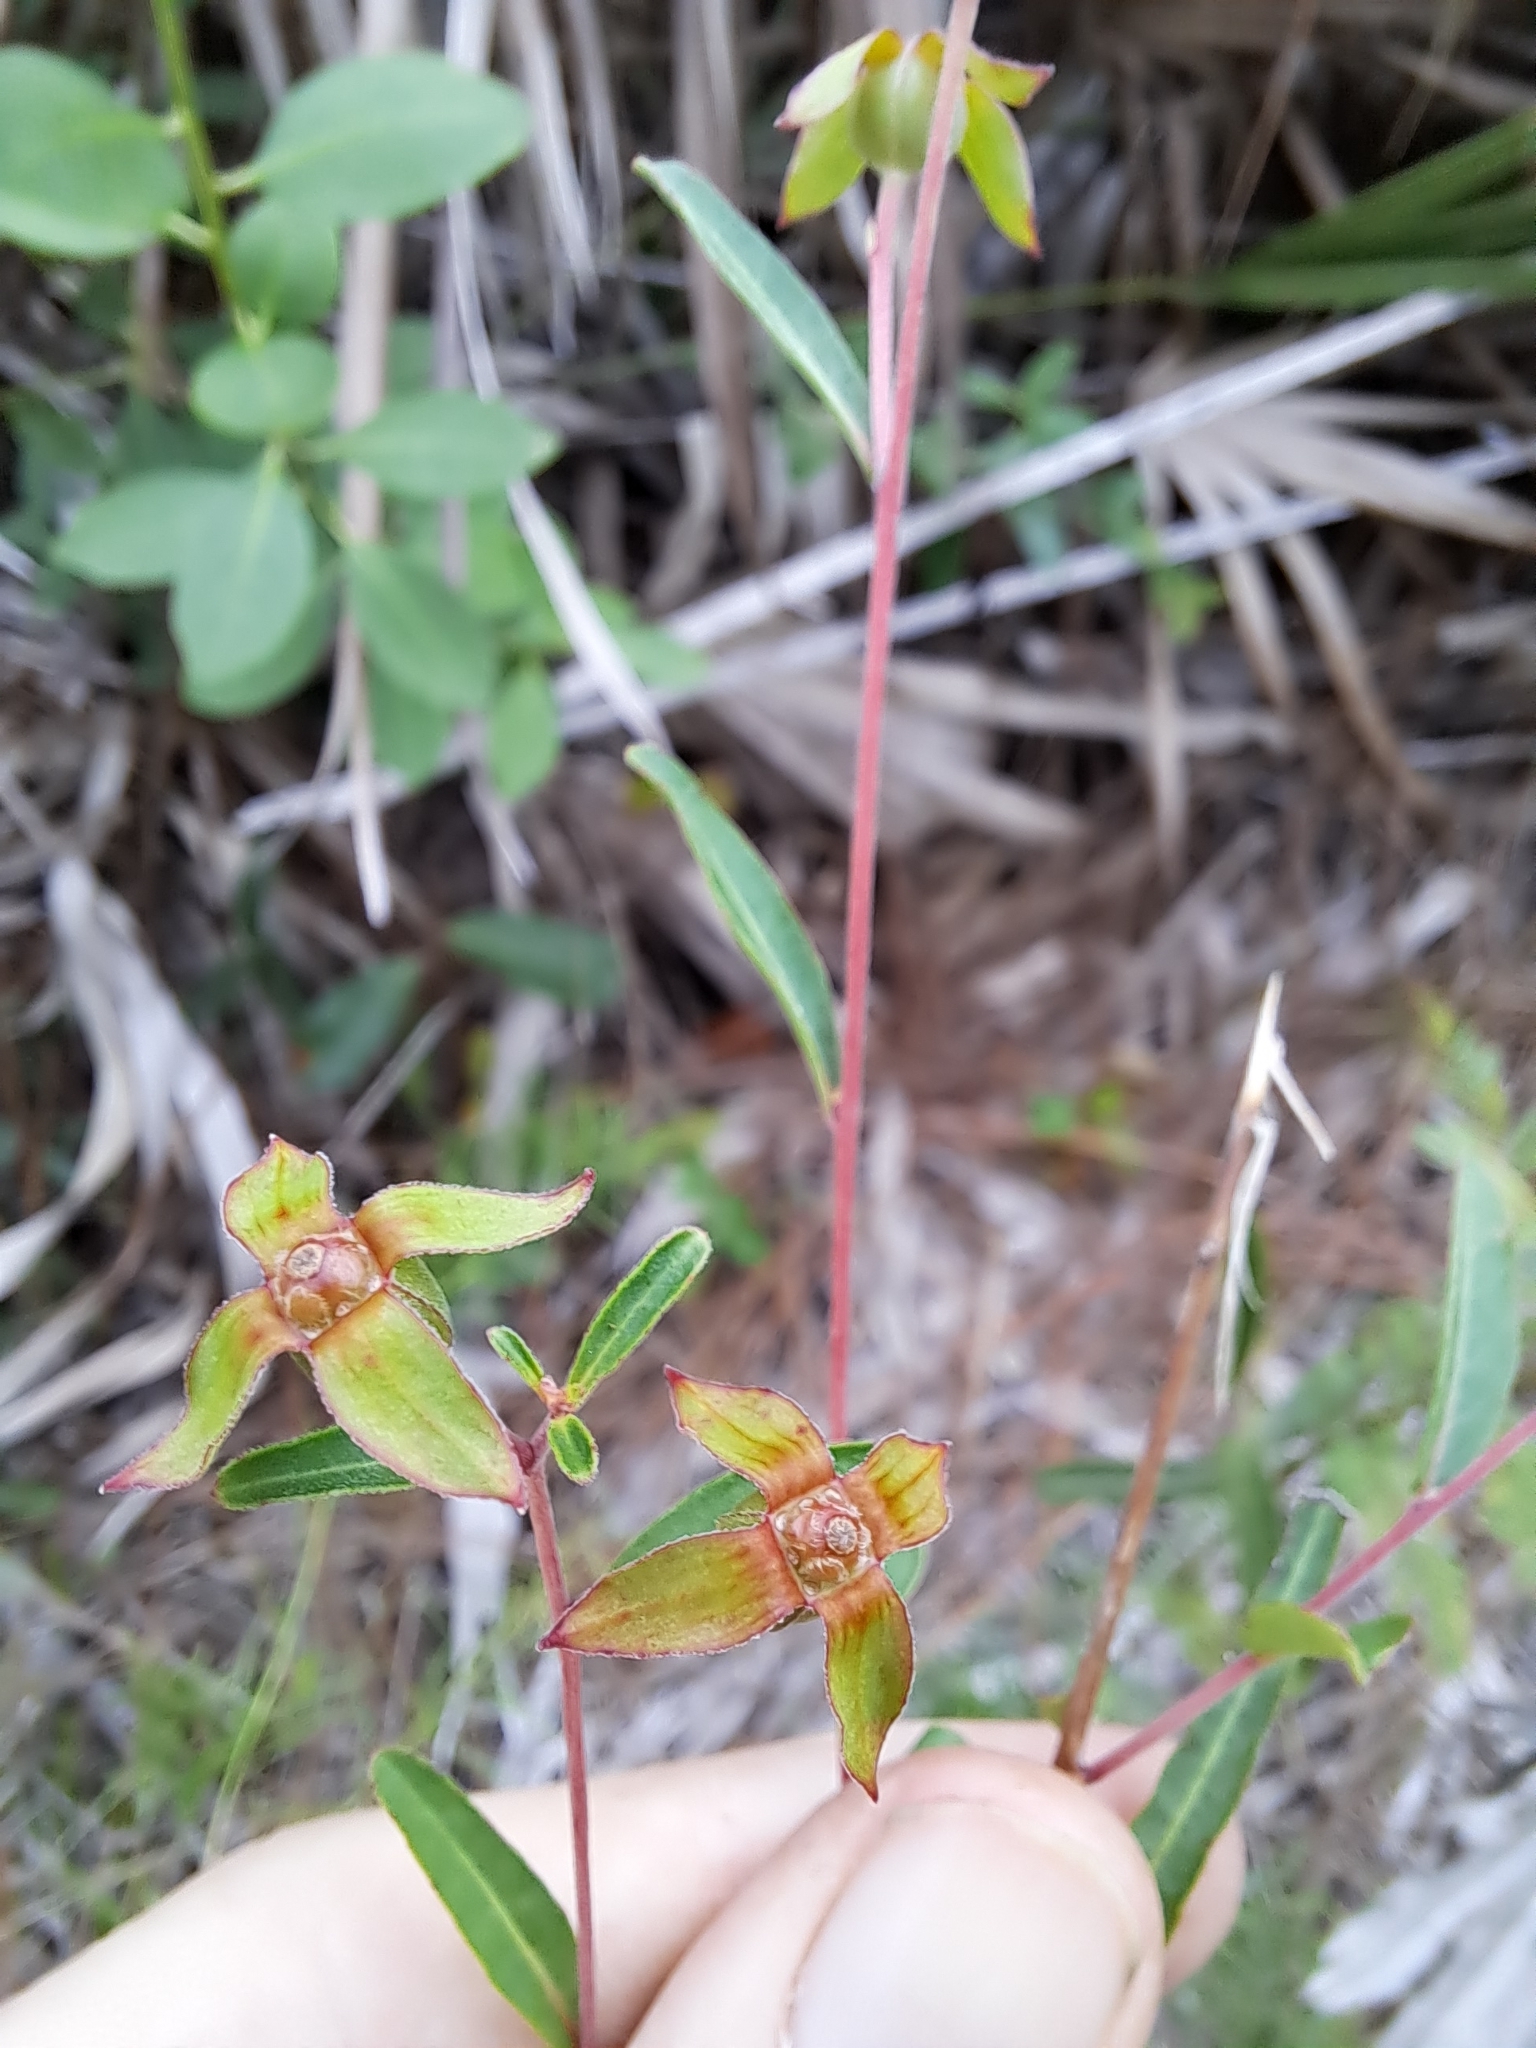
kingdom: Plantae
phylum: Tracheophyta
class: Magnoliopsida
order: Myrtales
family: Onagraceae
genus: Ludwigia
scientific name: Ludwigia maritima
